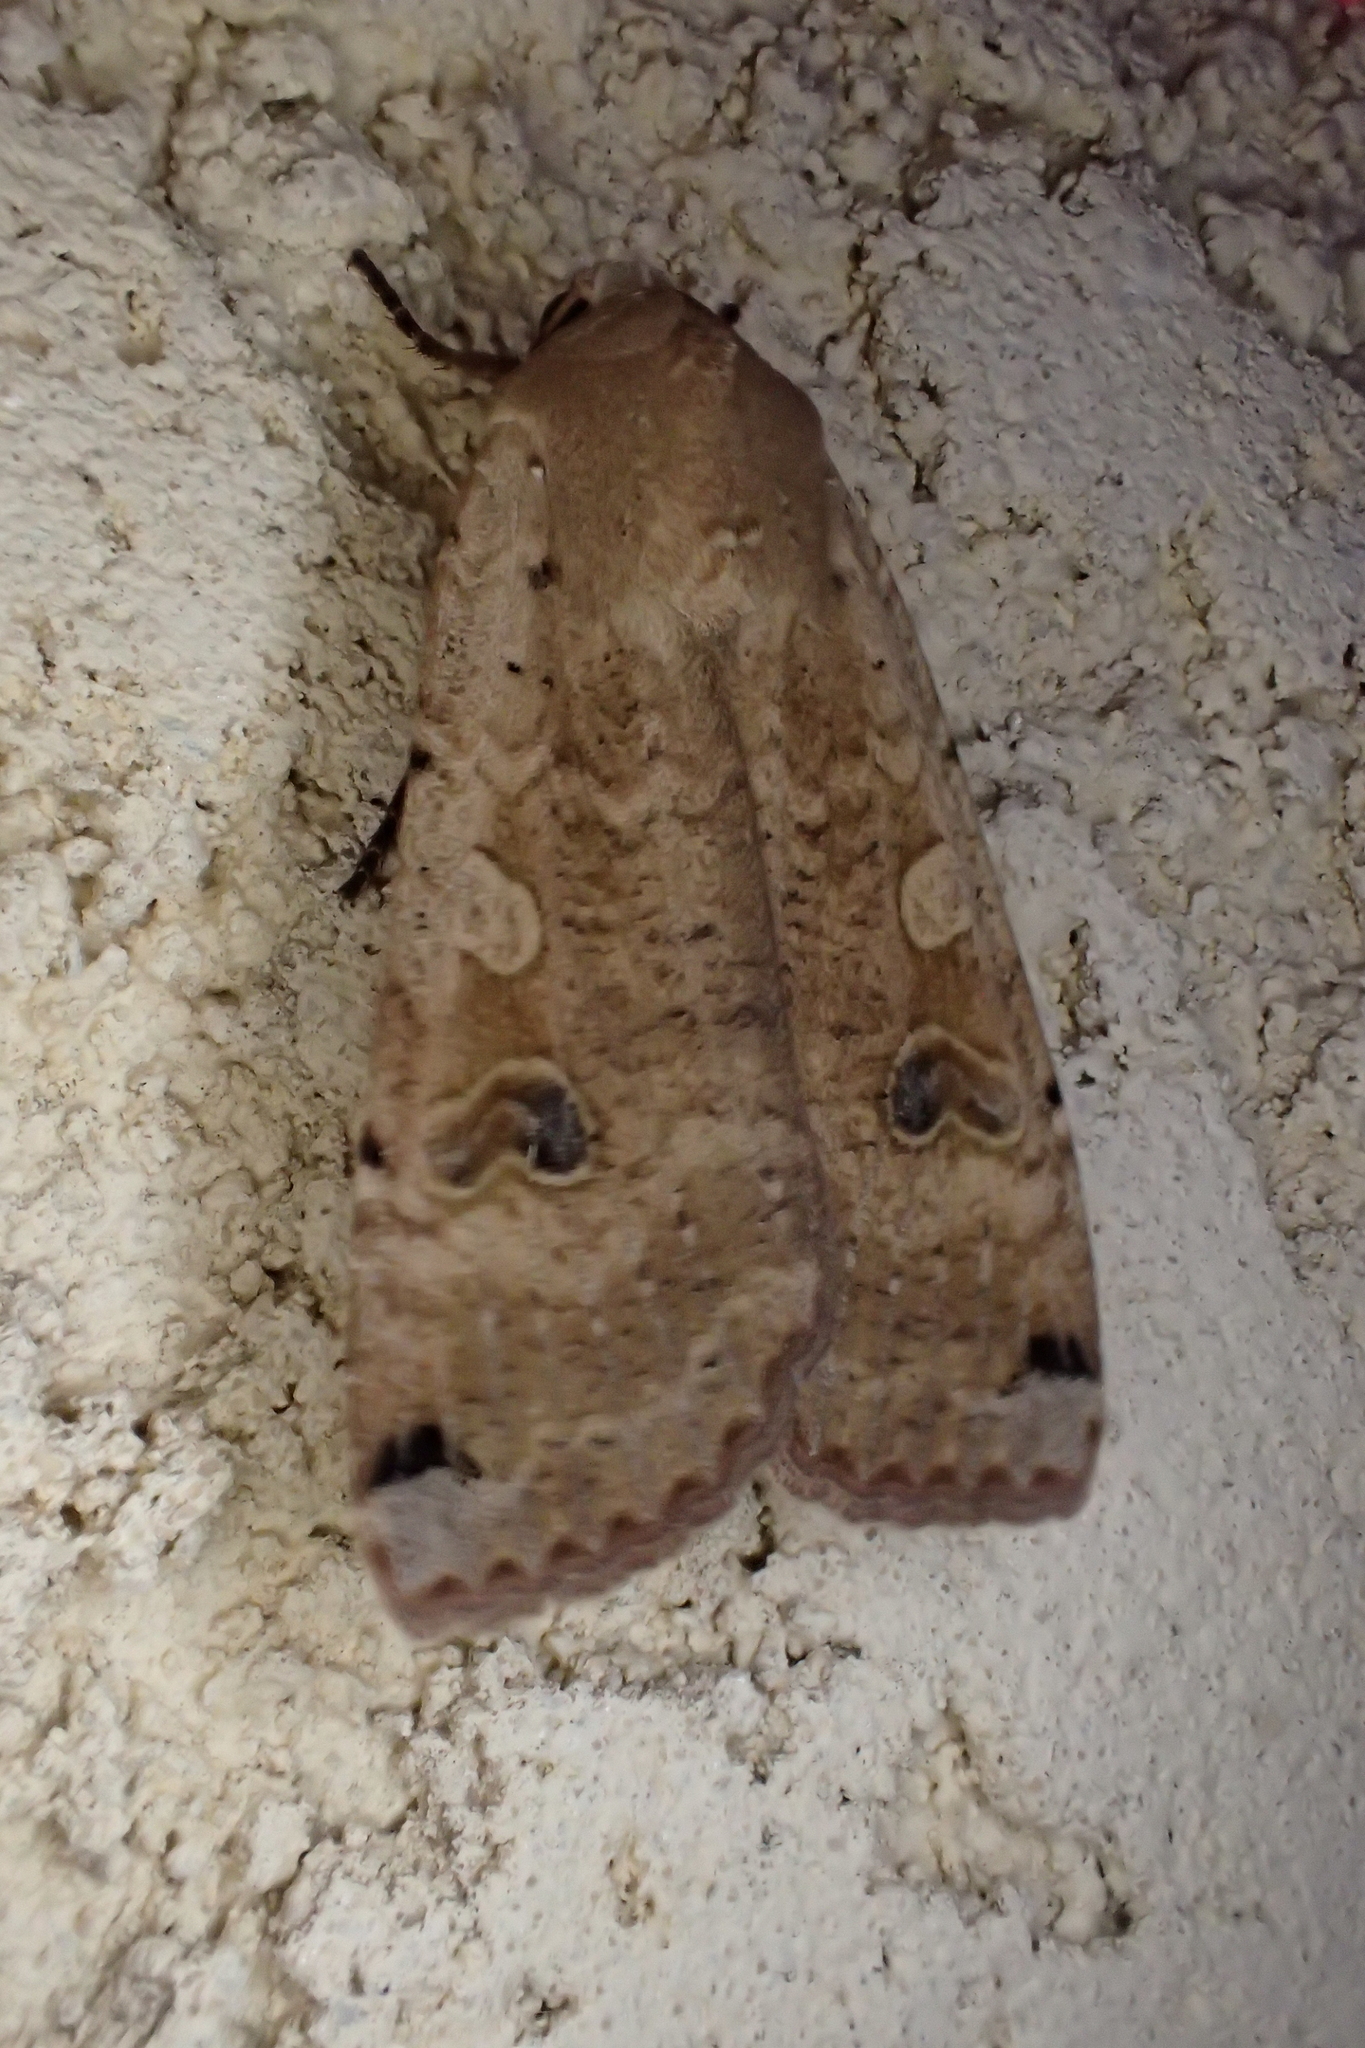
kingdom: Animalia
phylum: Arthropoda
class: Insecta
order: Lepidoptera
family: Noctuidae
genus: Noctua
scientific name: Noctua pronuba
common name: Large yellow underwing
